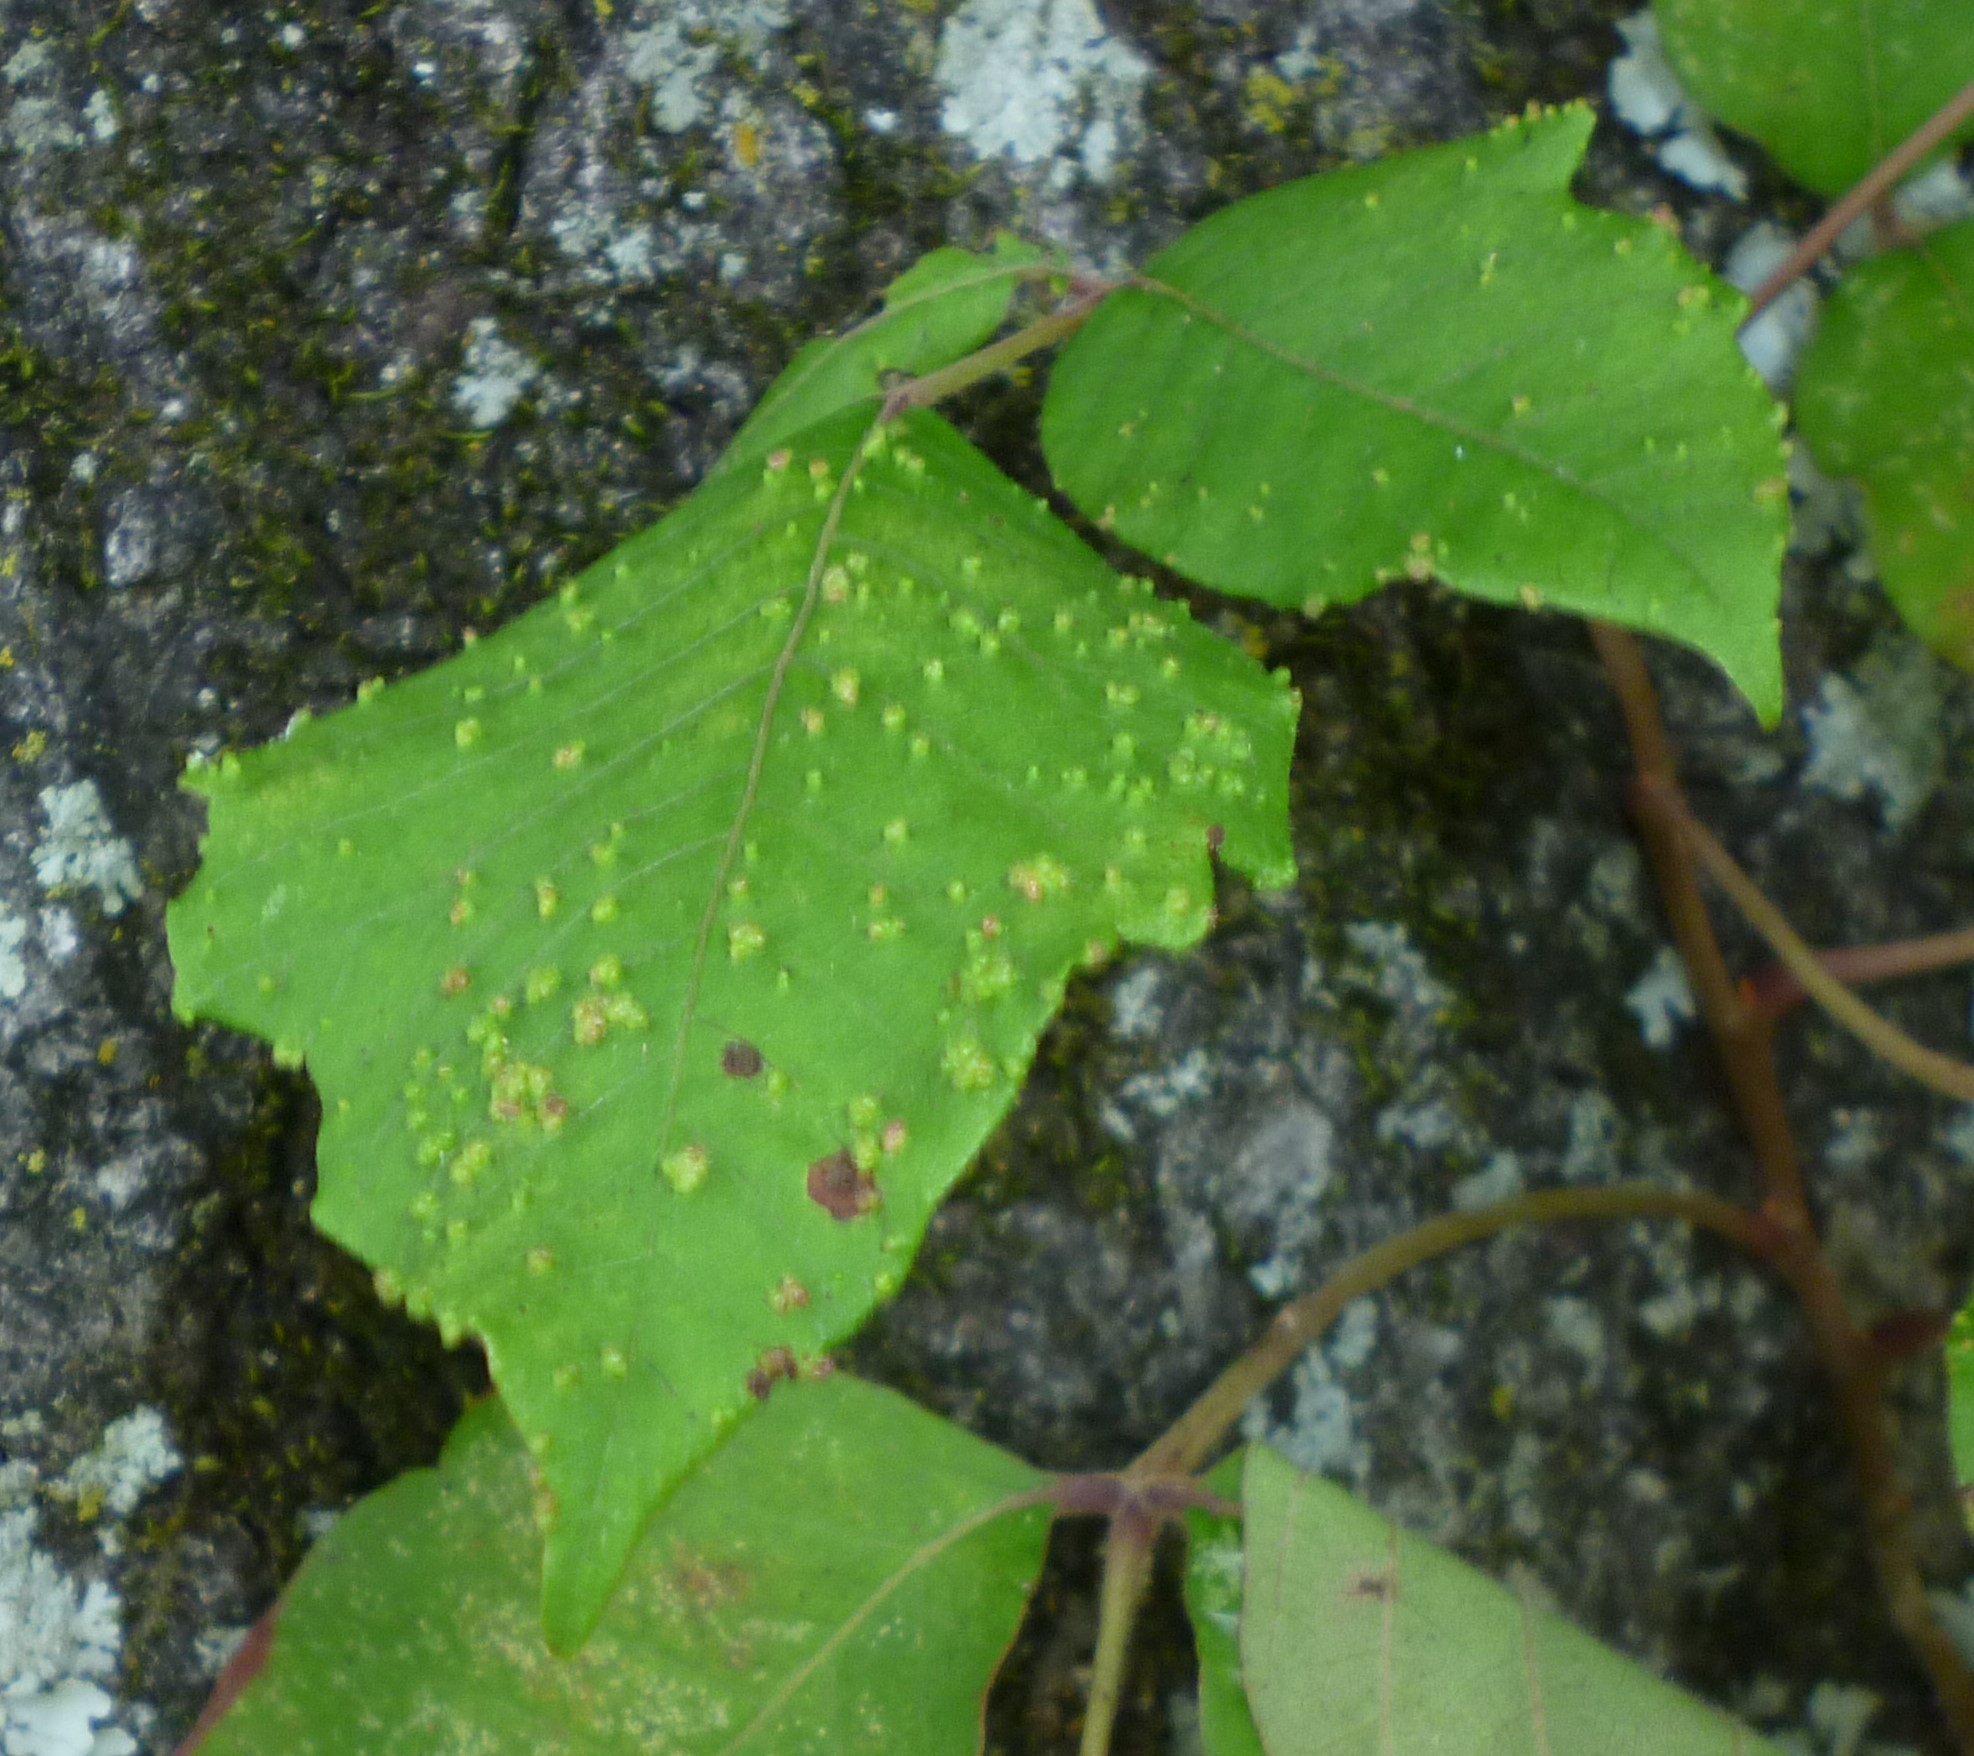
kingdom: Animalia
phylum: Arthropoda
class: Arachnida
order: Trombidiformes
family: Eriophyidae
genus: Aculops
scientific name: Aculops
